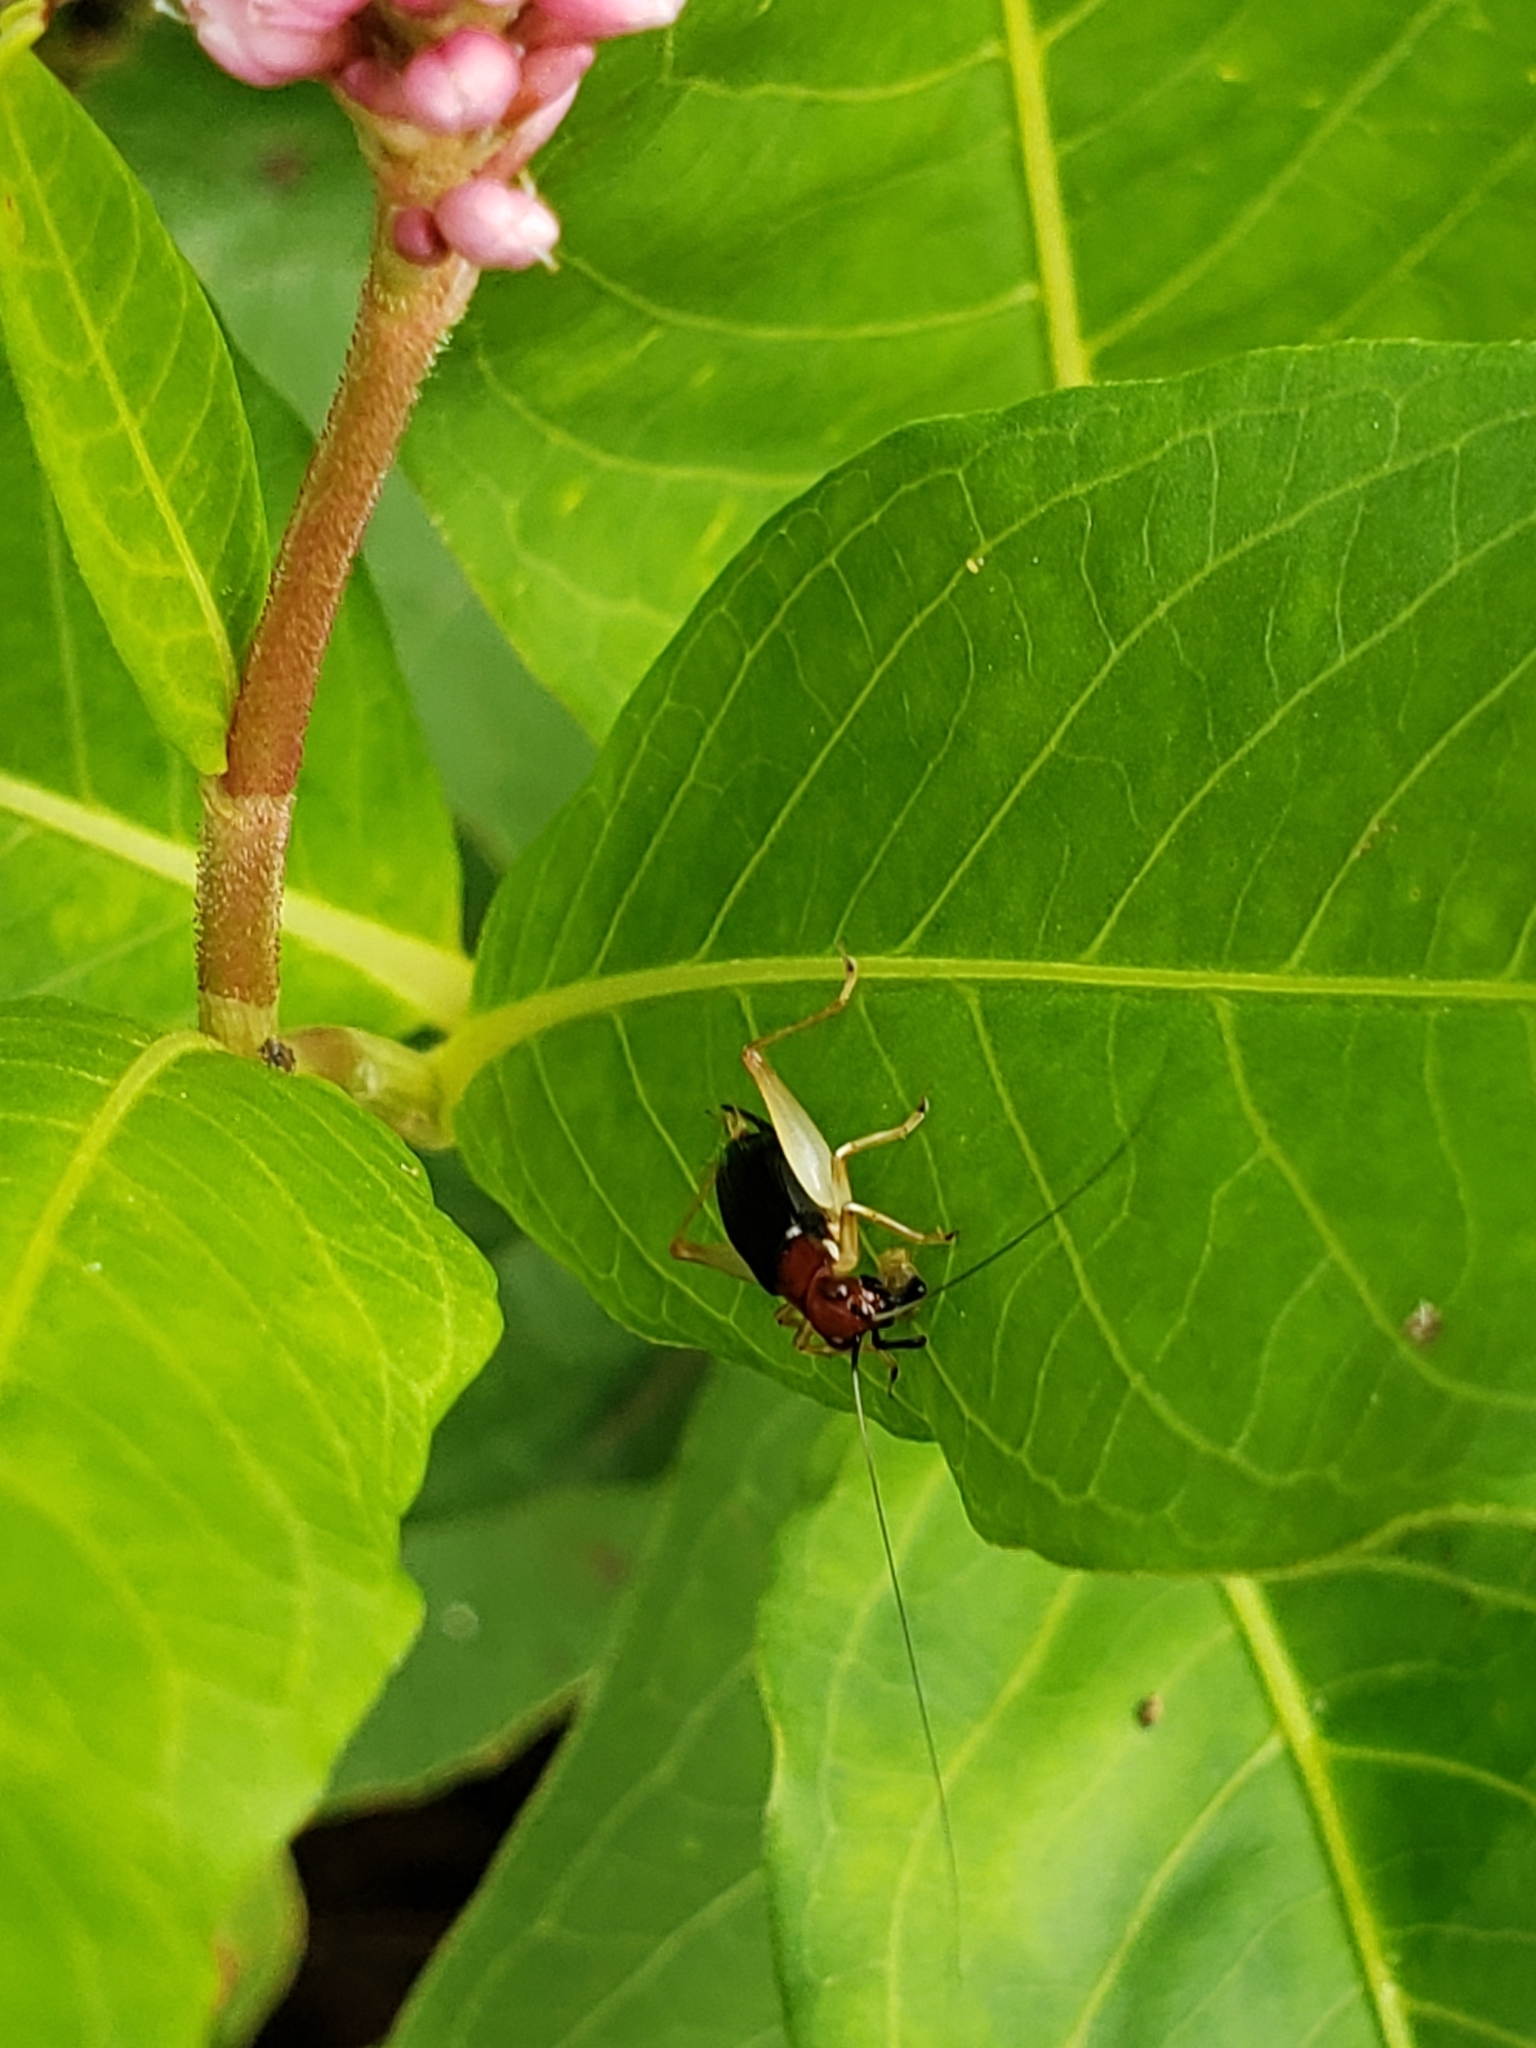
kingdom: Animalia
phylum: Arthropoda
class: Insecta
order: Orthoptera
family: Trigonidiidae
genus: Phyllopalpus
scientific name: Phyllopalpus pulchellus
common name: Handsome trig
